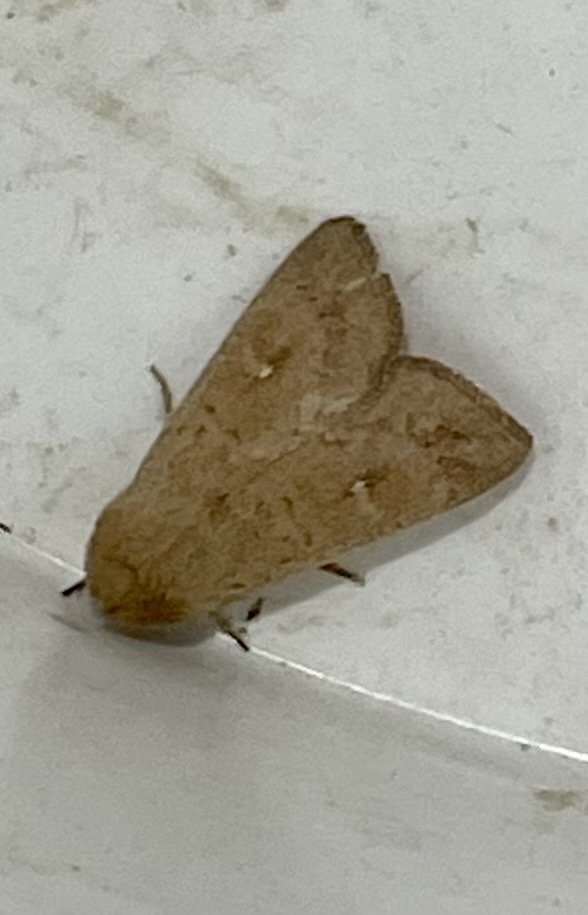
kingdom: Animalia
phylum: Arthropoda
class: Insecta
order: Lepidoptera
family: Noctuidae
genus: Mythimna
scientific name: Mythimna ferrago
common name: Clay
